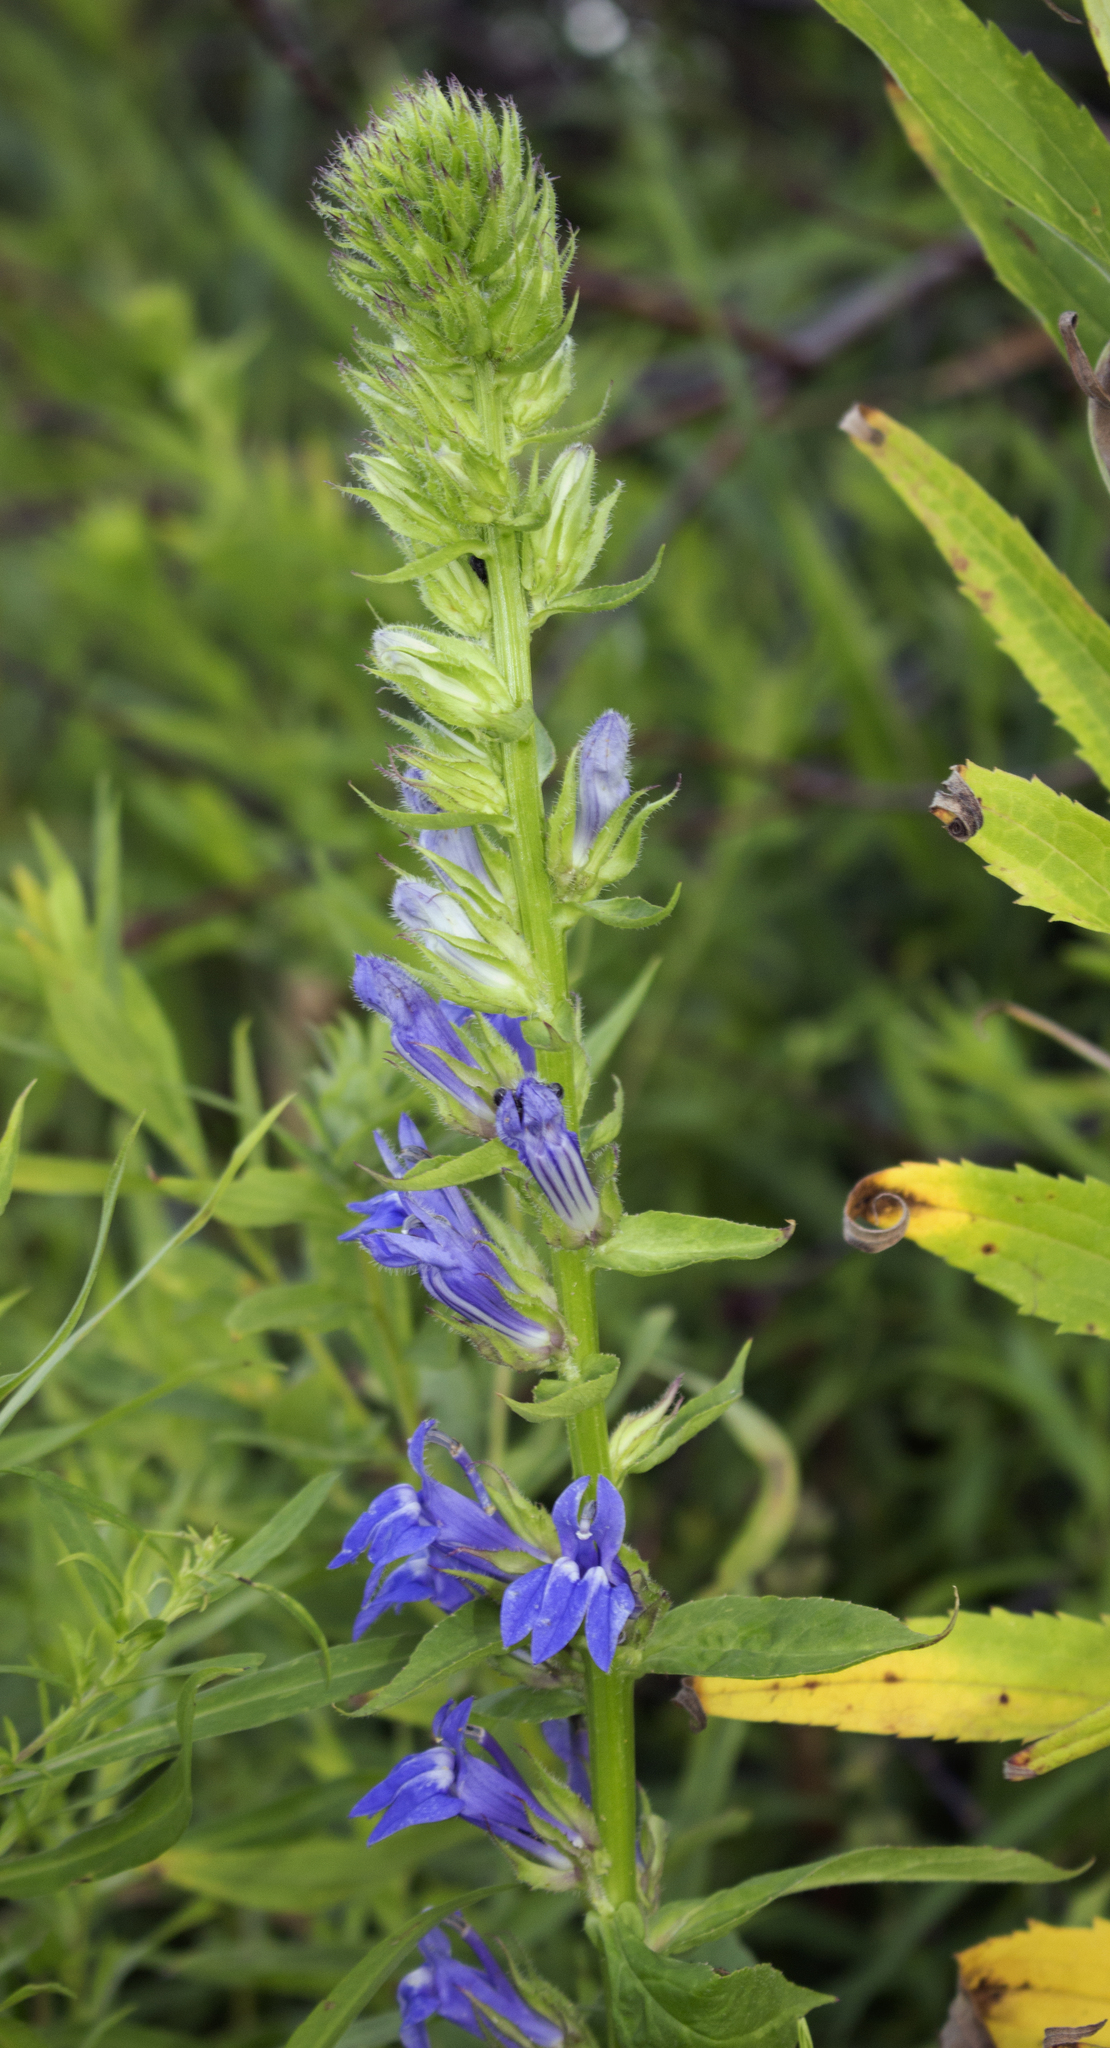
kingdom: Plantae
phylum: Tracheophyta
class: Magnoliopsida
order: Asterales
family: Campanulaceae
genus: Lobelia
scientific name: Lobelia siphilitica
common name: Great lobelia
